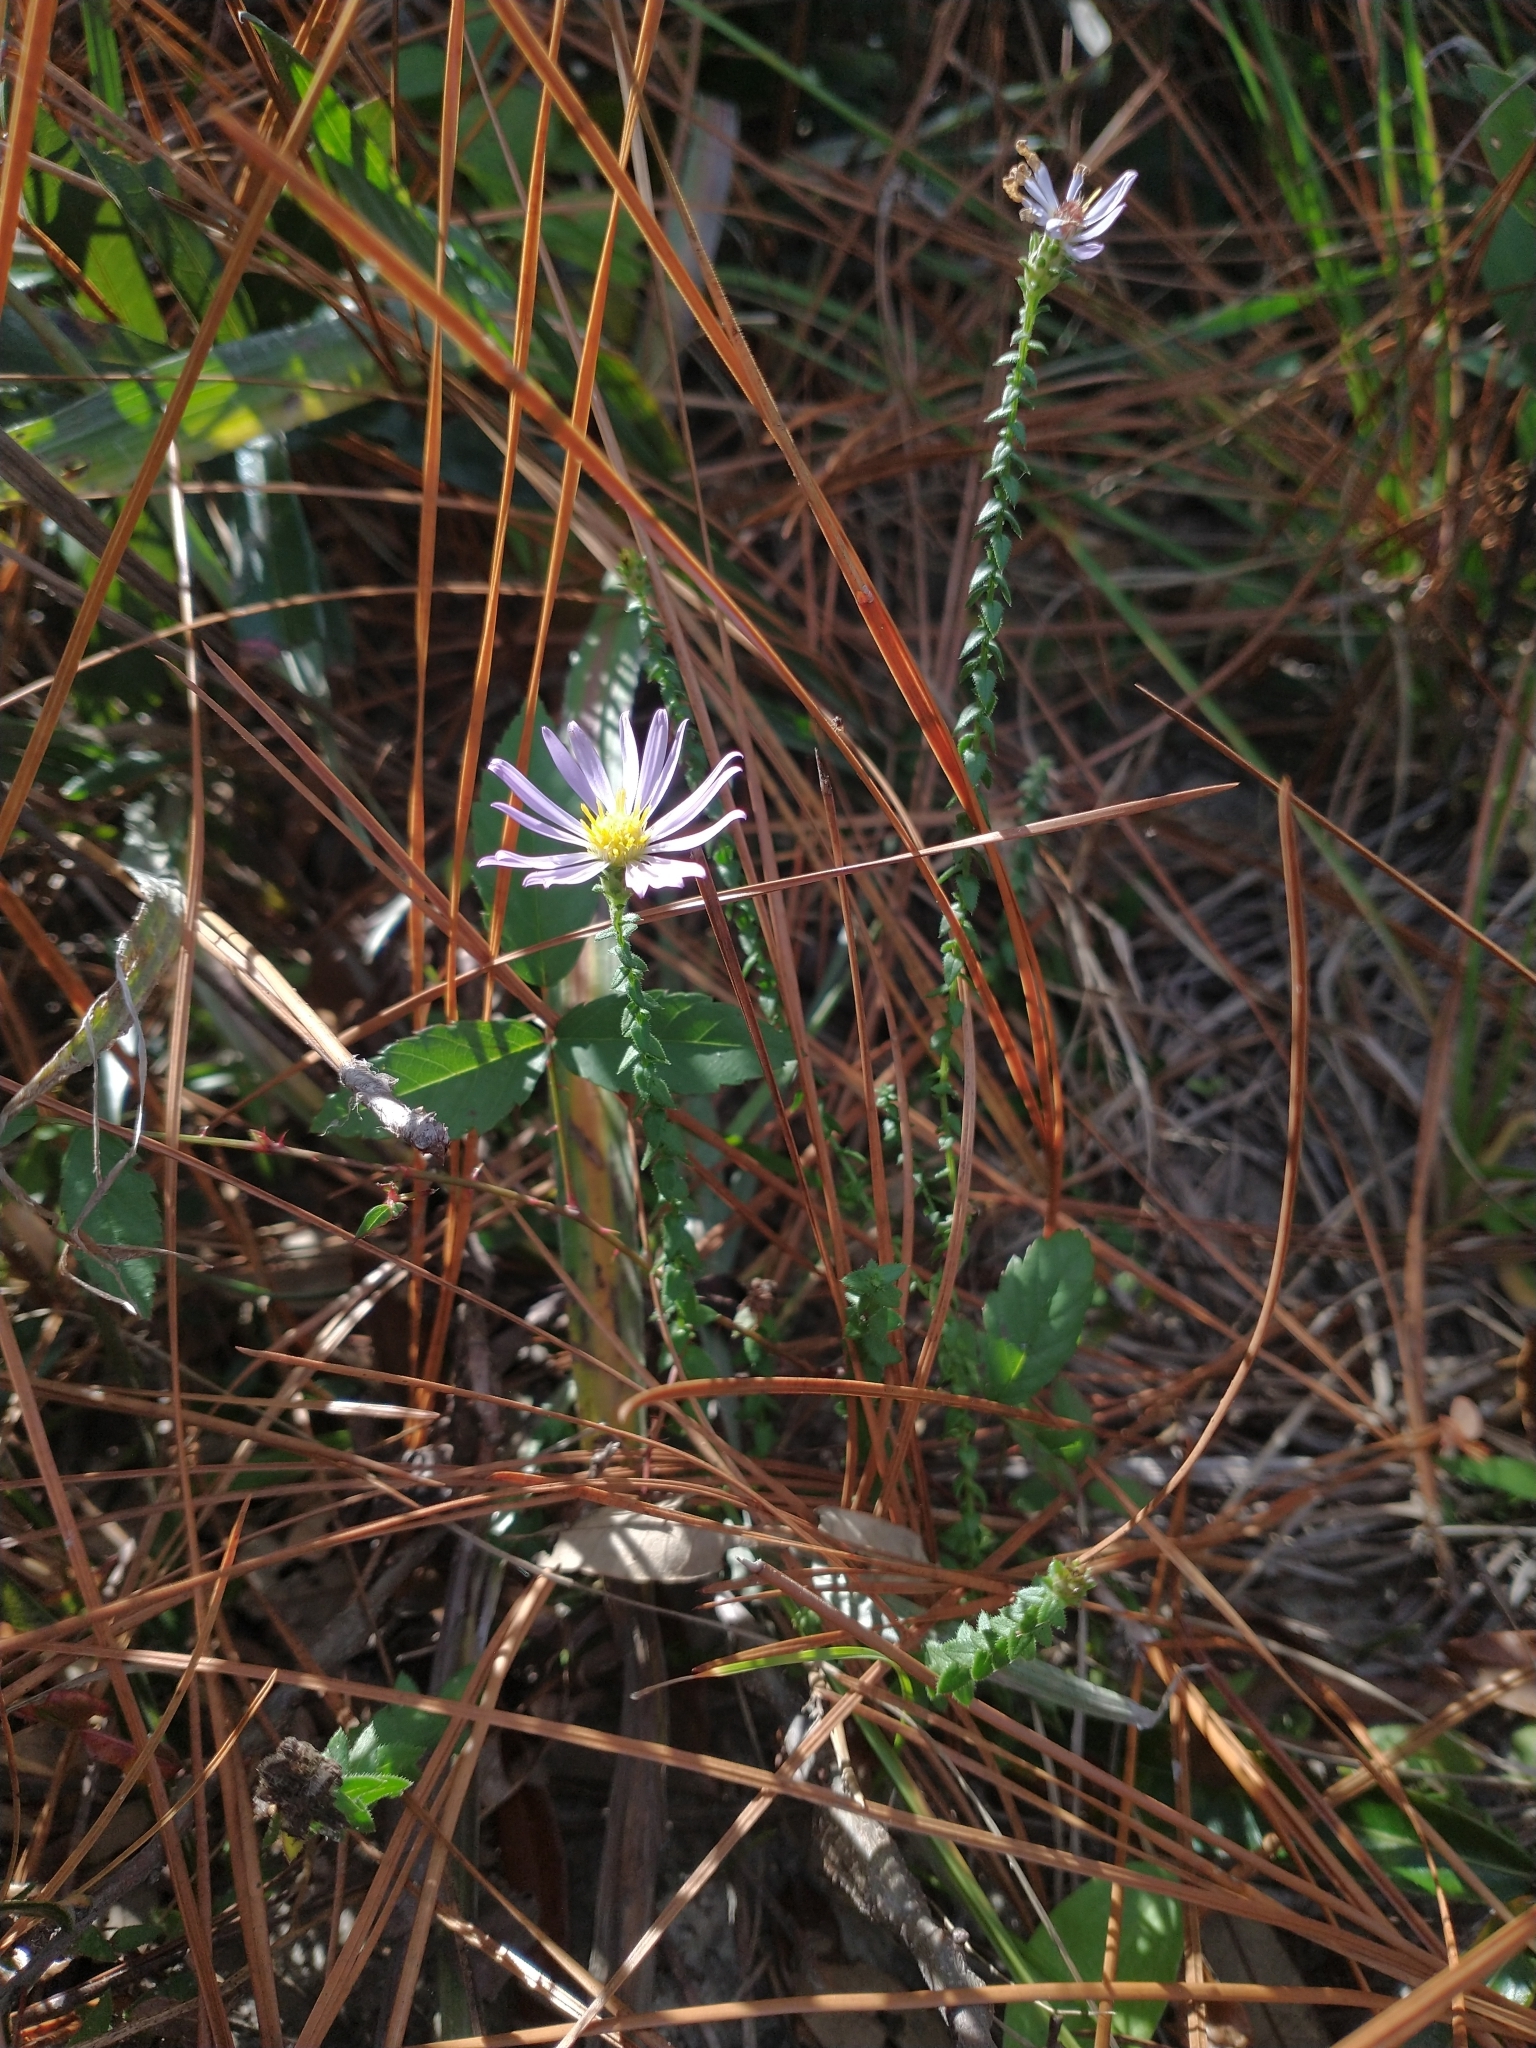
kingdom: Plantae
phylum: Tracheophyta
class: Magnoliopsida
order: Asterales
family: Asteraceae
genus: Symphyotrichum
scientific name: Symphyotrichum walteri
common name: Walter's aster
